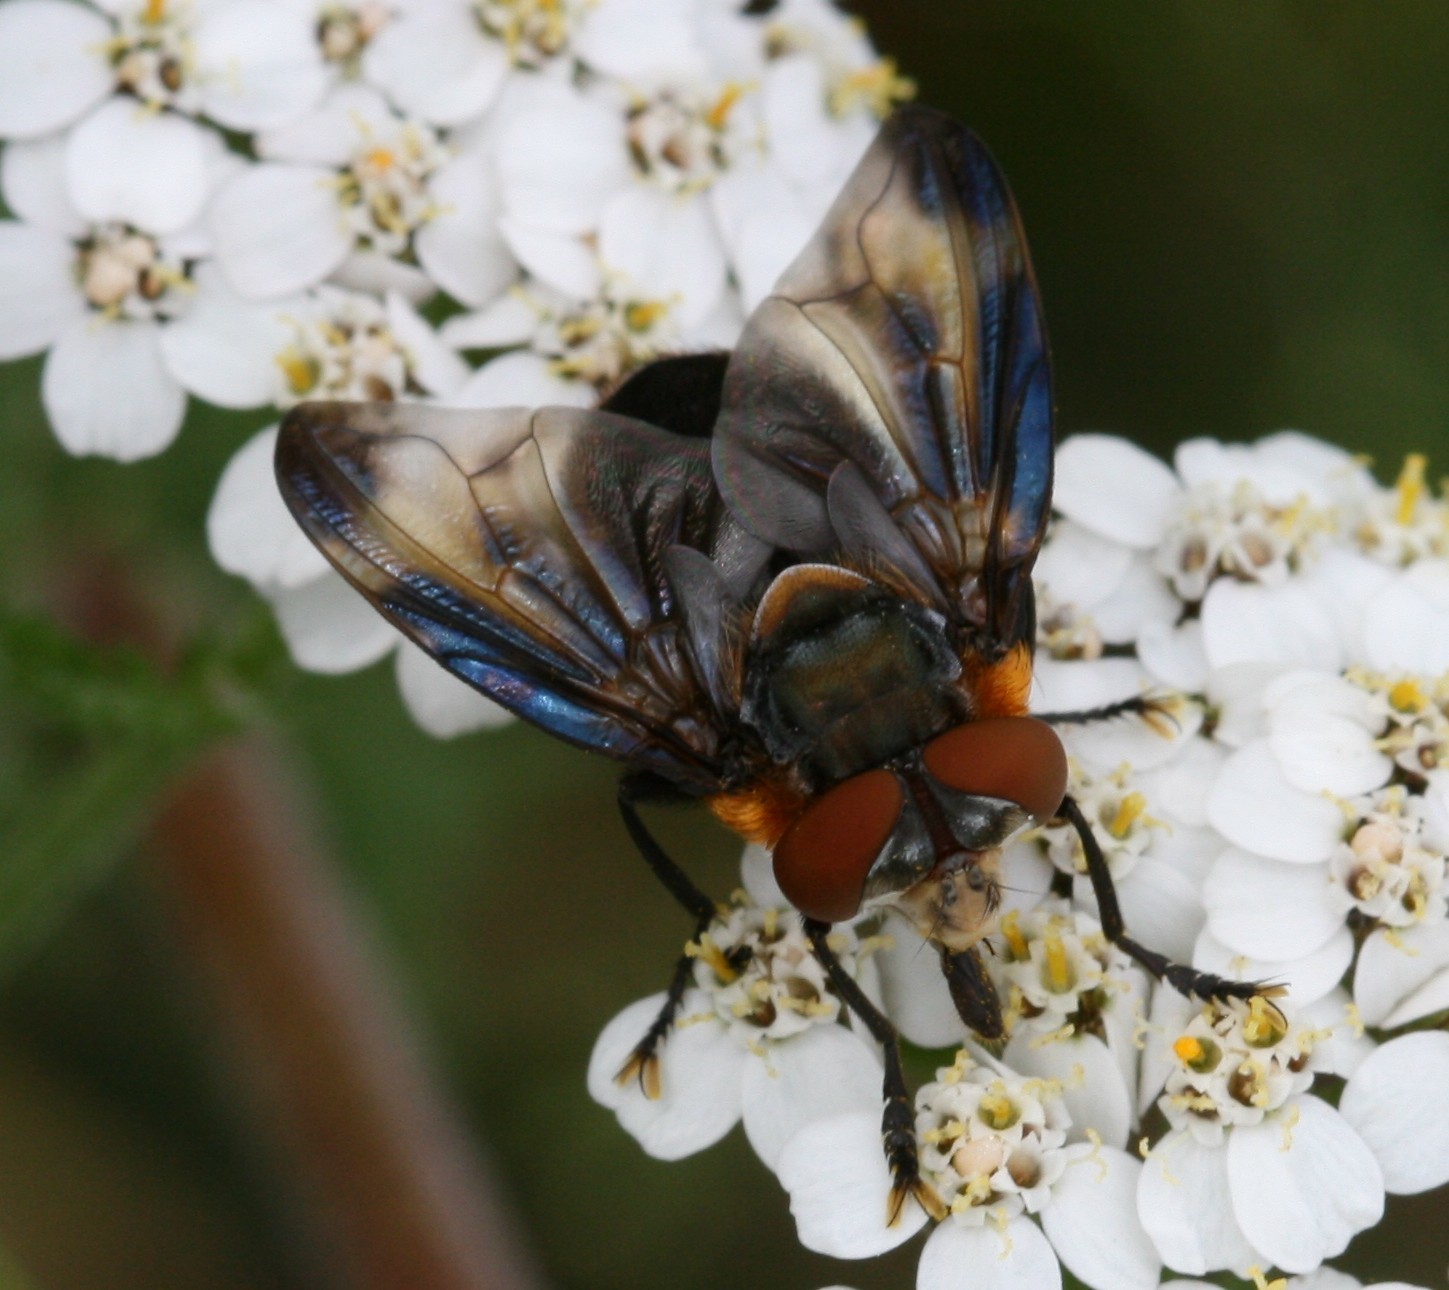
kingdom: Animalia
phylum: Arthropoda
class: Insecta
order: Diptera
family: Tachinidae
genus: Phasia
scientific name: Phasia hemiptera
